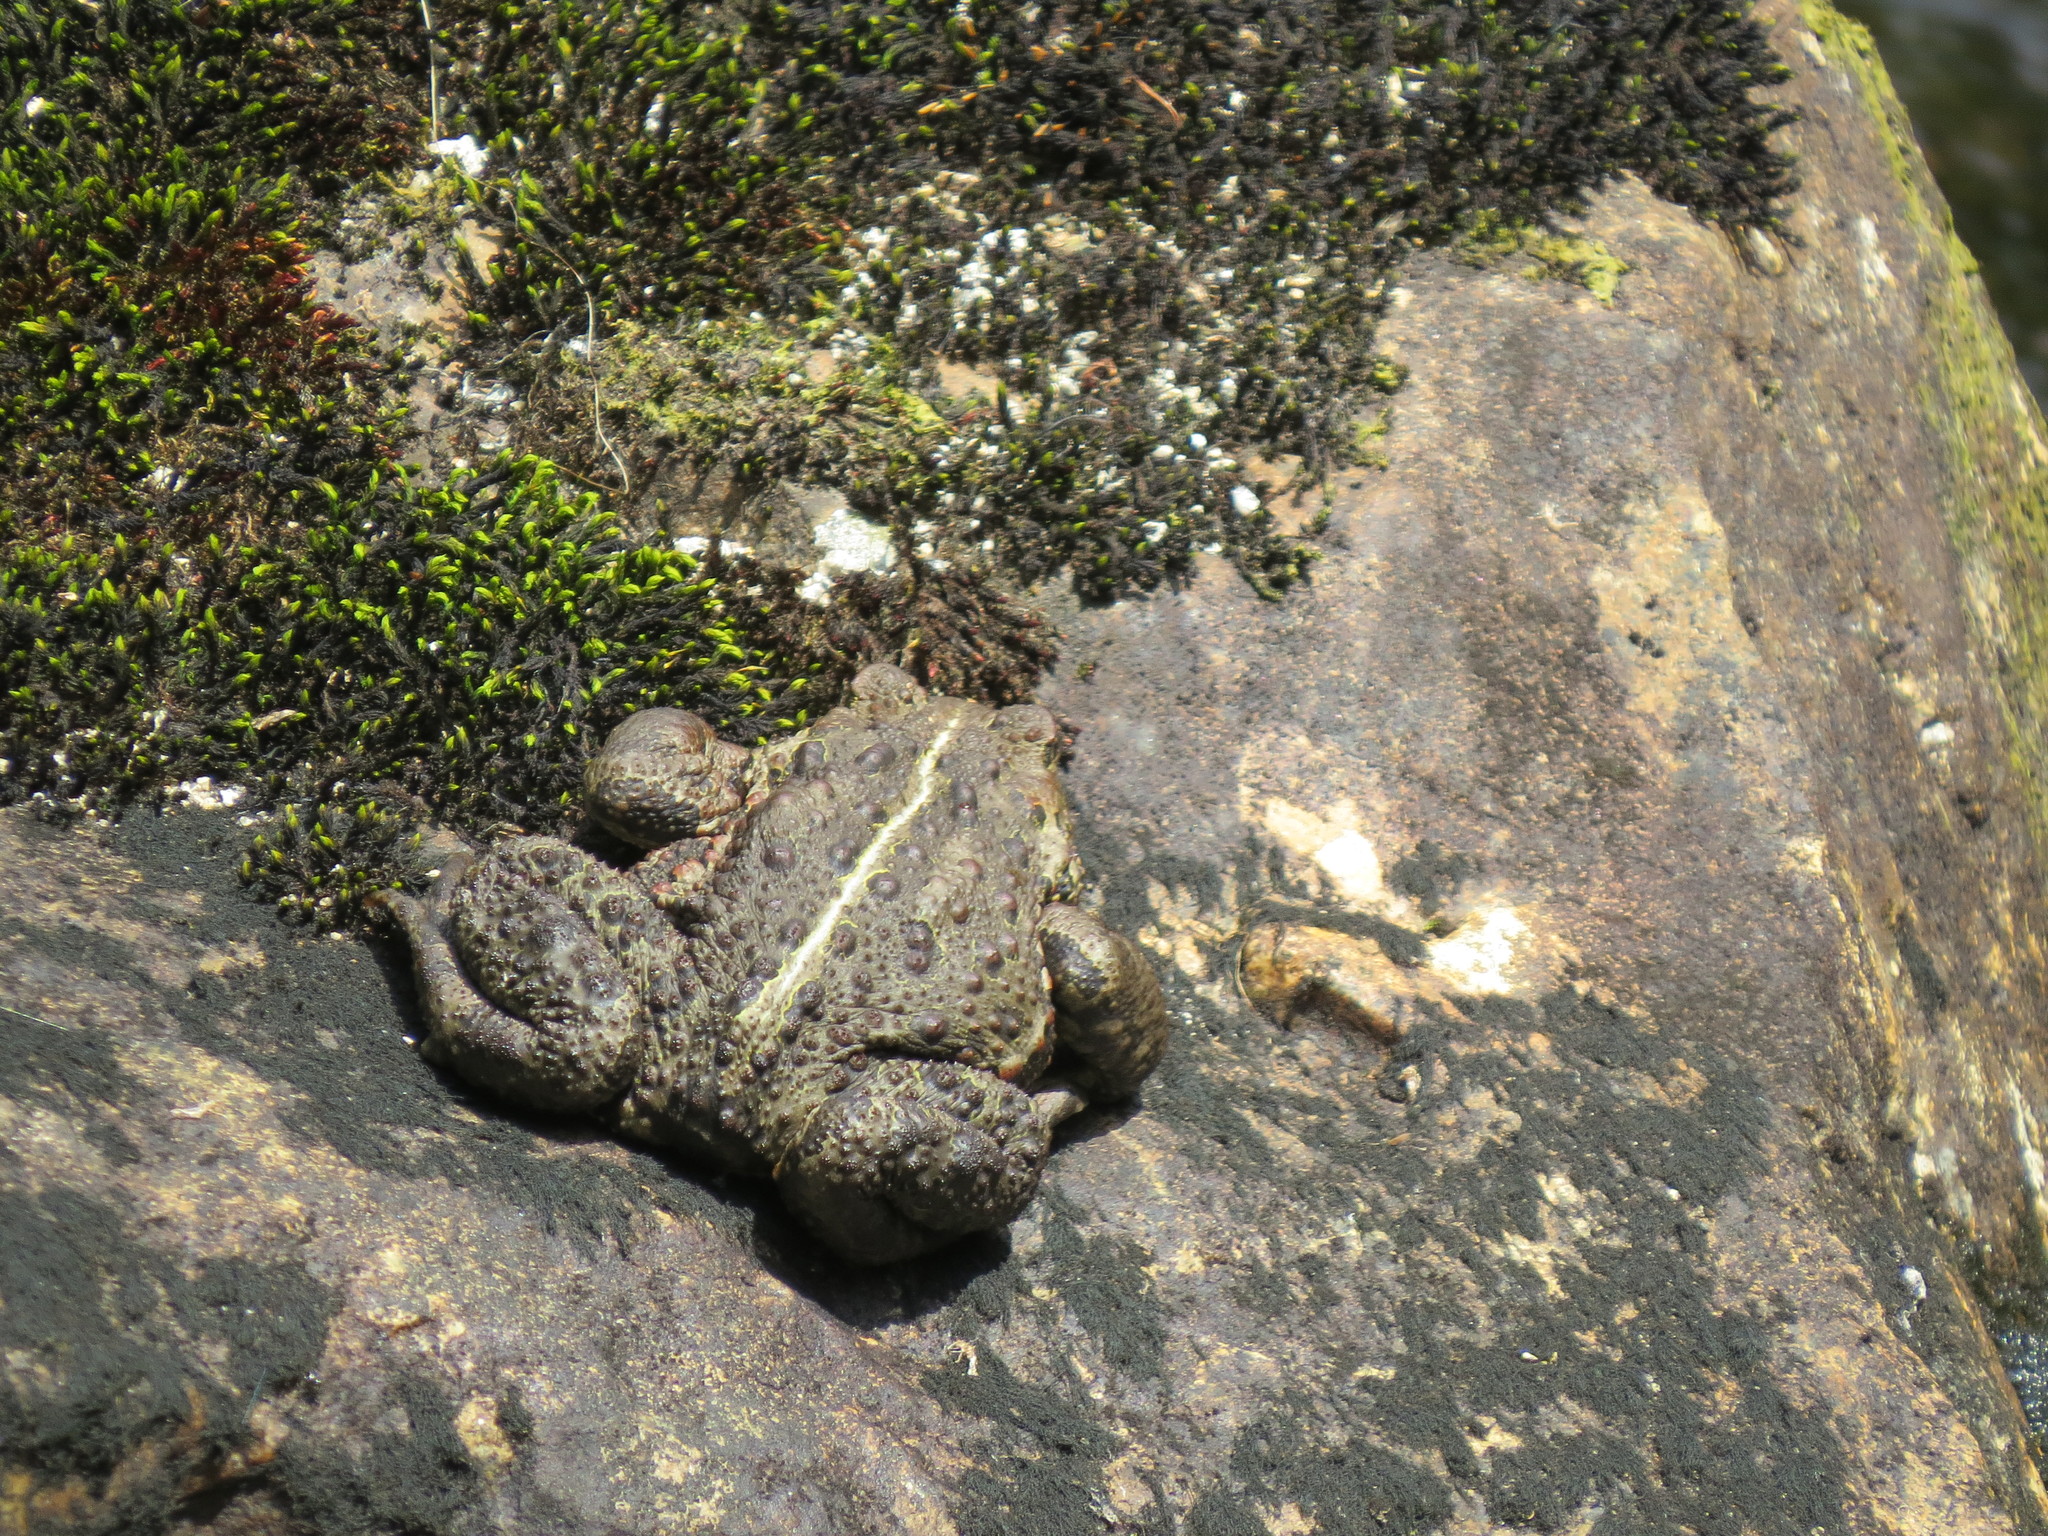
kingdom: Animalia
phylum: Chordata
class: Amphibia
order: Anura
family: Bufonidae
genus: Anaxyrus
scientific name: Anaxyrus boreas
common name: Western toad
